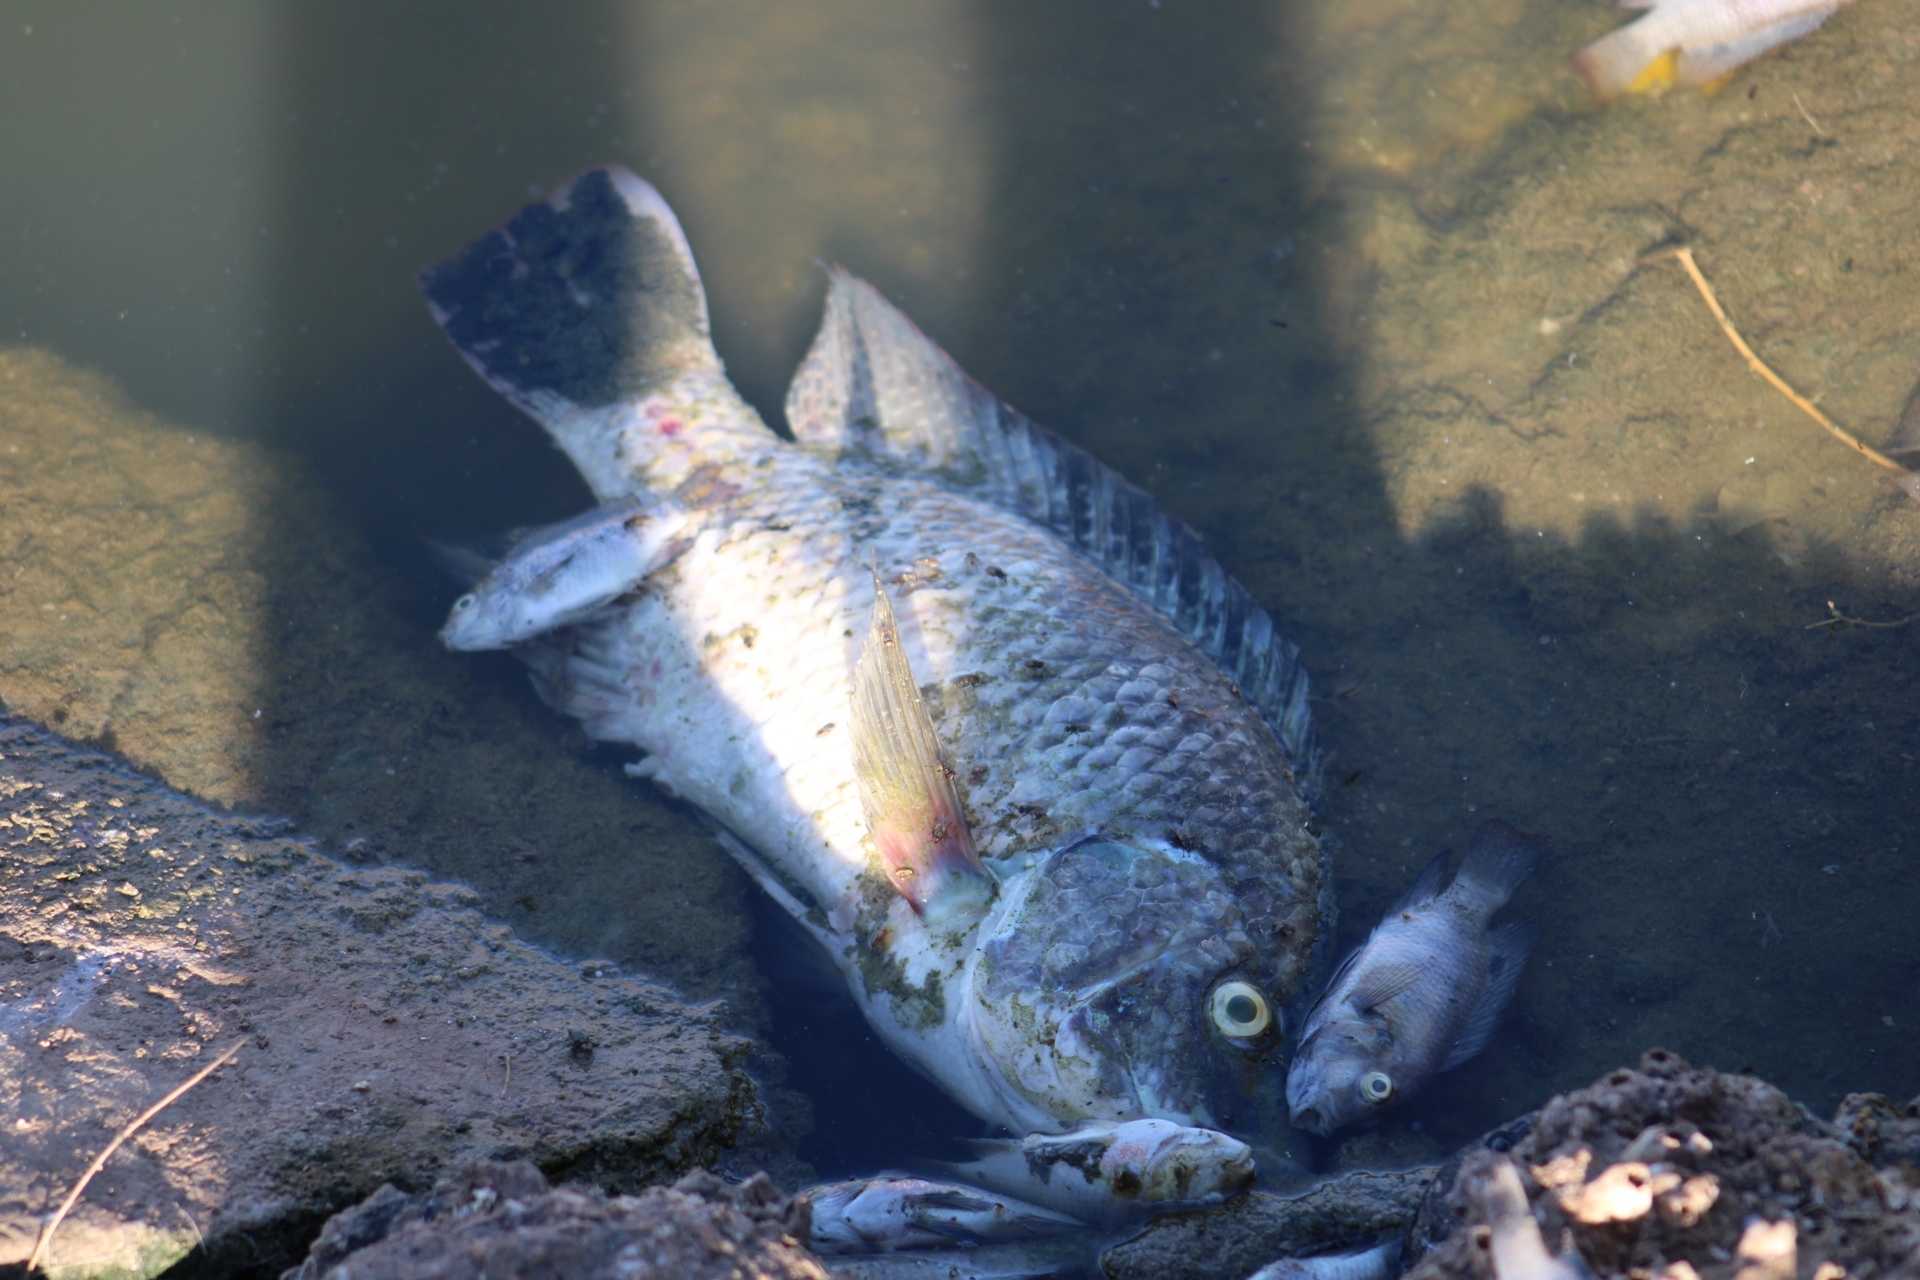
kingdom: Animalia
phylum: Chordata
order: Perciformes
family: Cichlidae
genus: Oreochromis
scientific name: Oreochromis niloticus
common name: Nile tilapia
